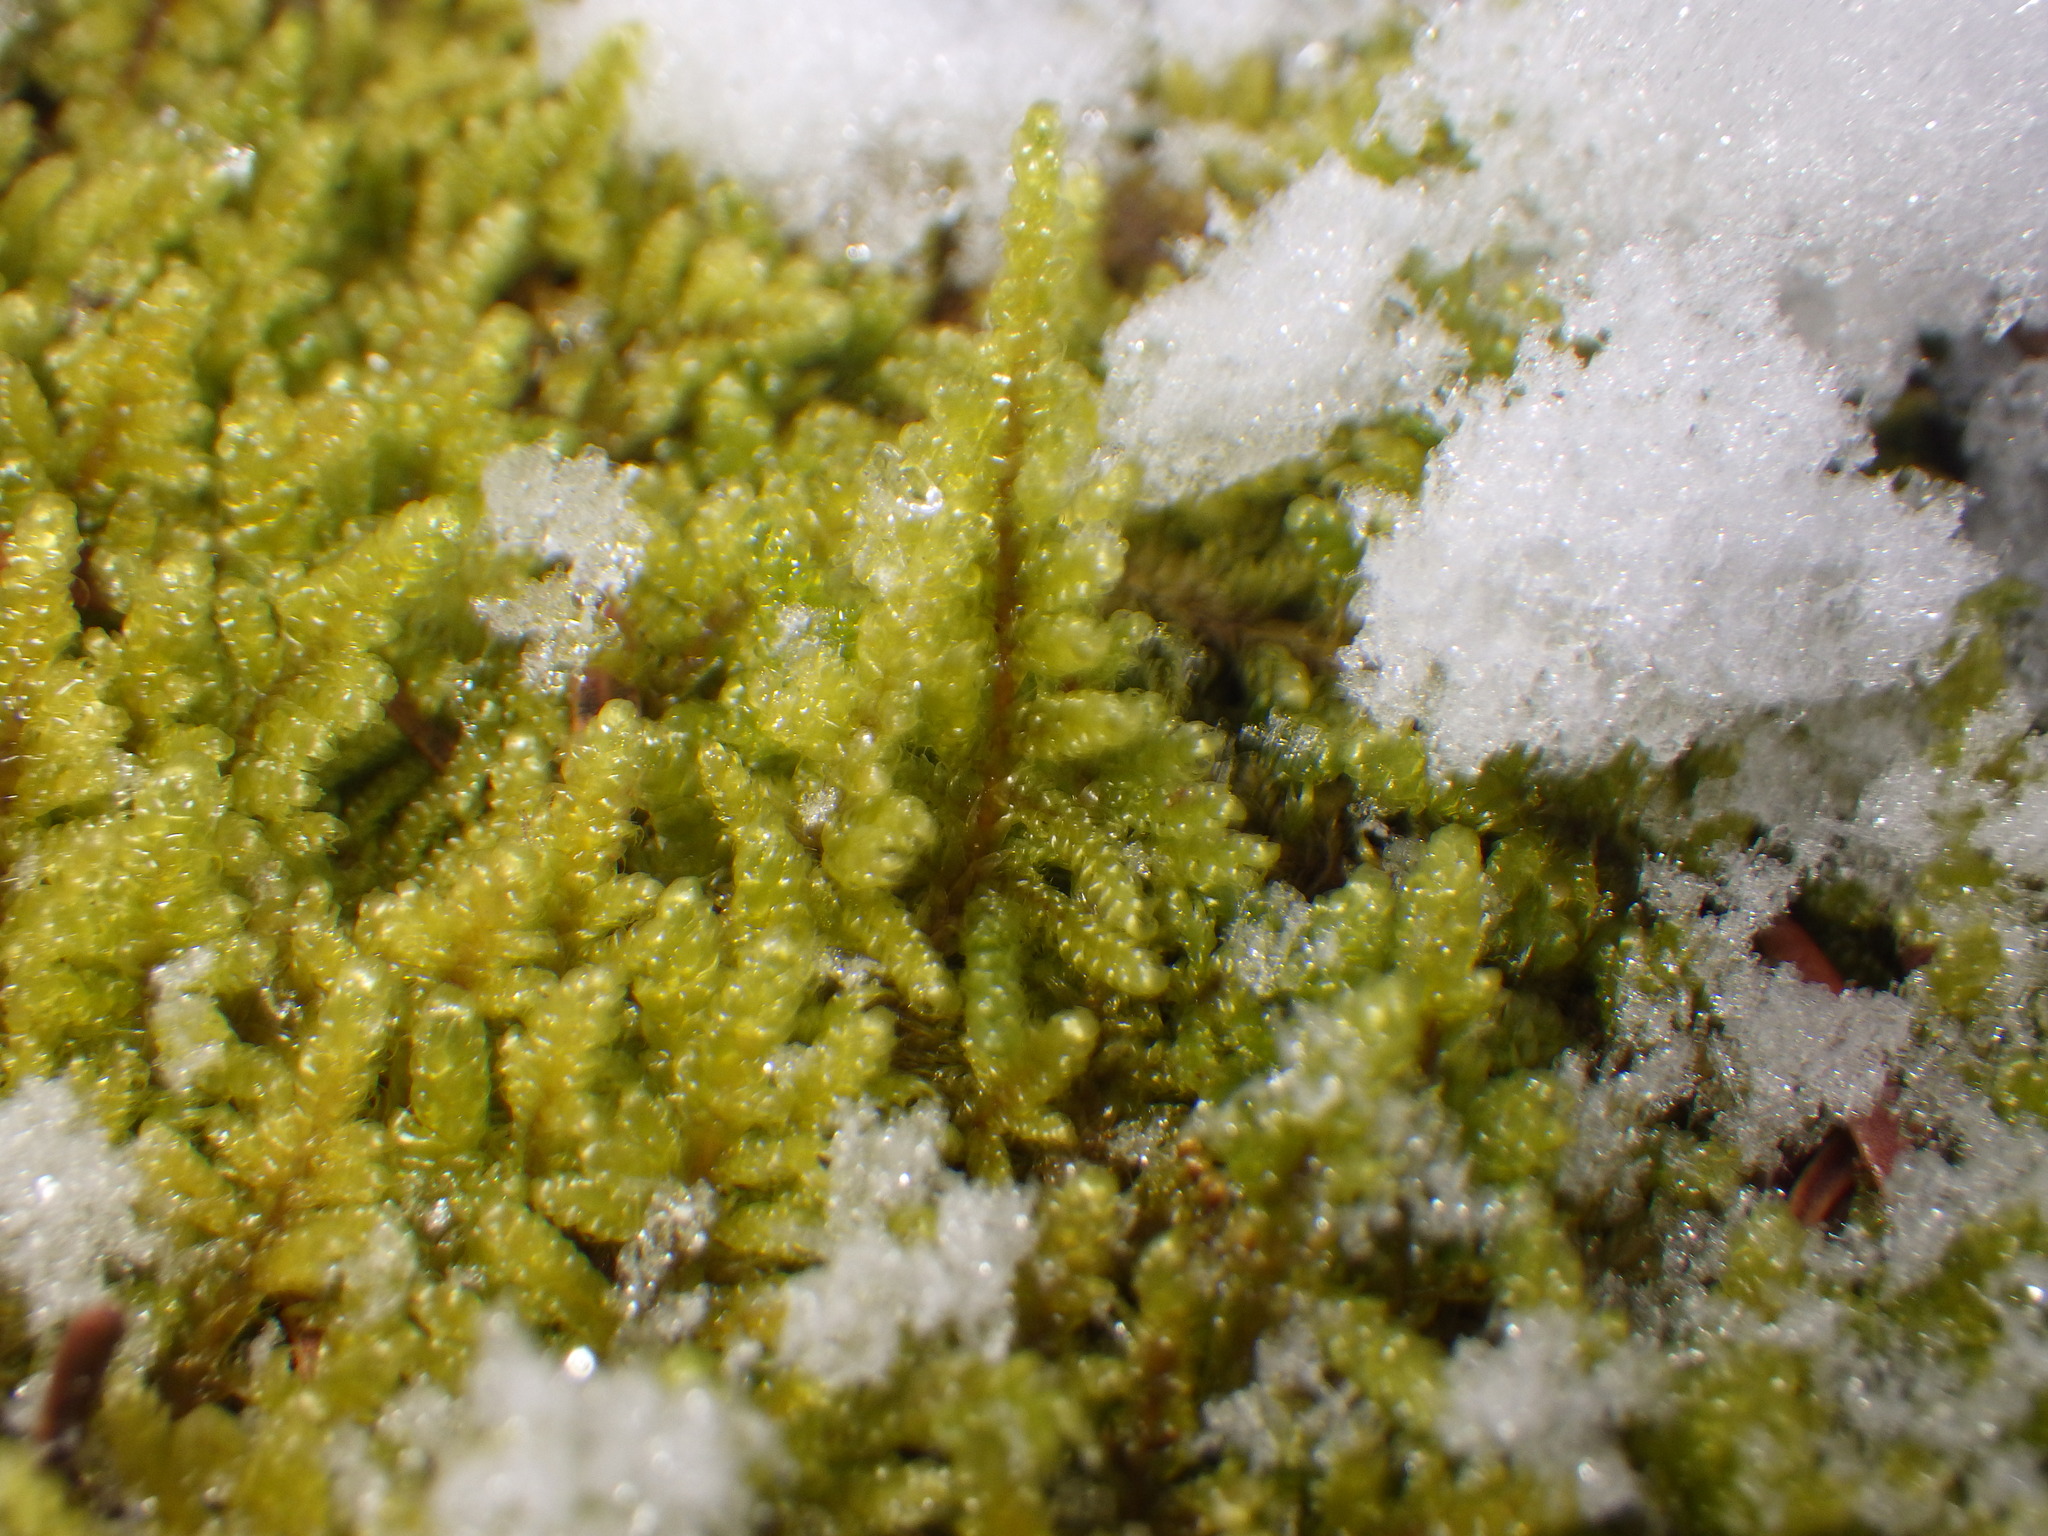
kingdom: Plantae
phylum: Bryophyta
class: Bryopsida
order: Hypnales
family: Callicladiaceae
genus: Callicladium
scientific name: Callicladium imponens
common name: Brocade moss
